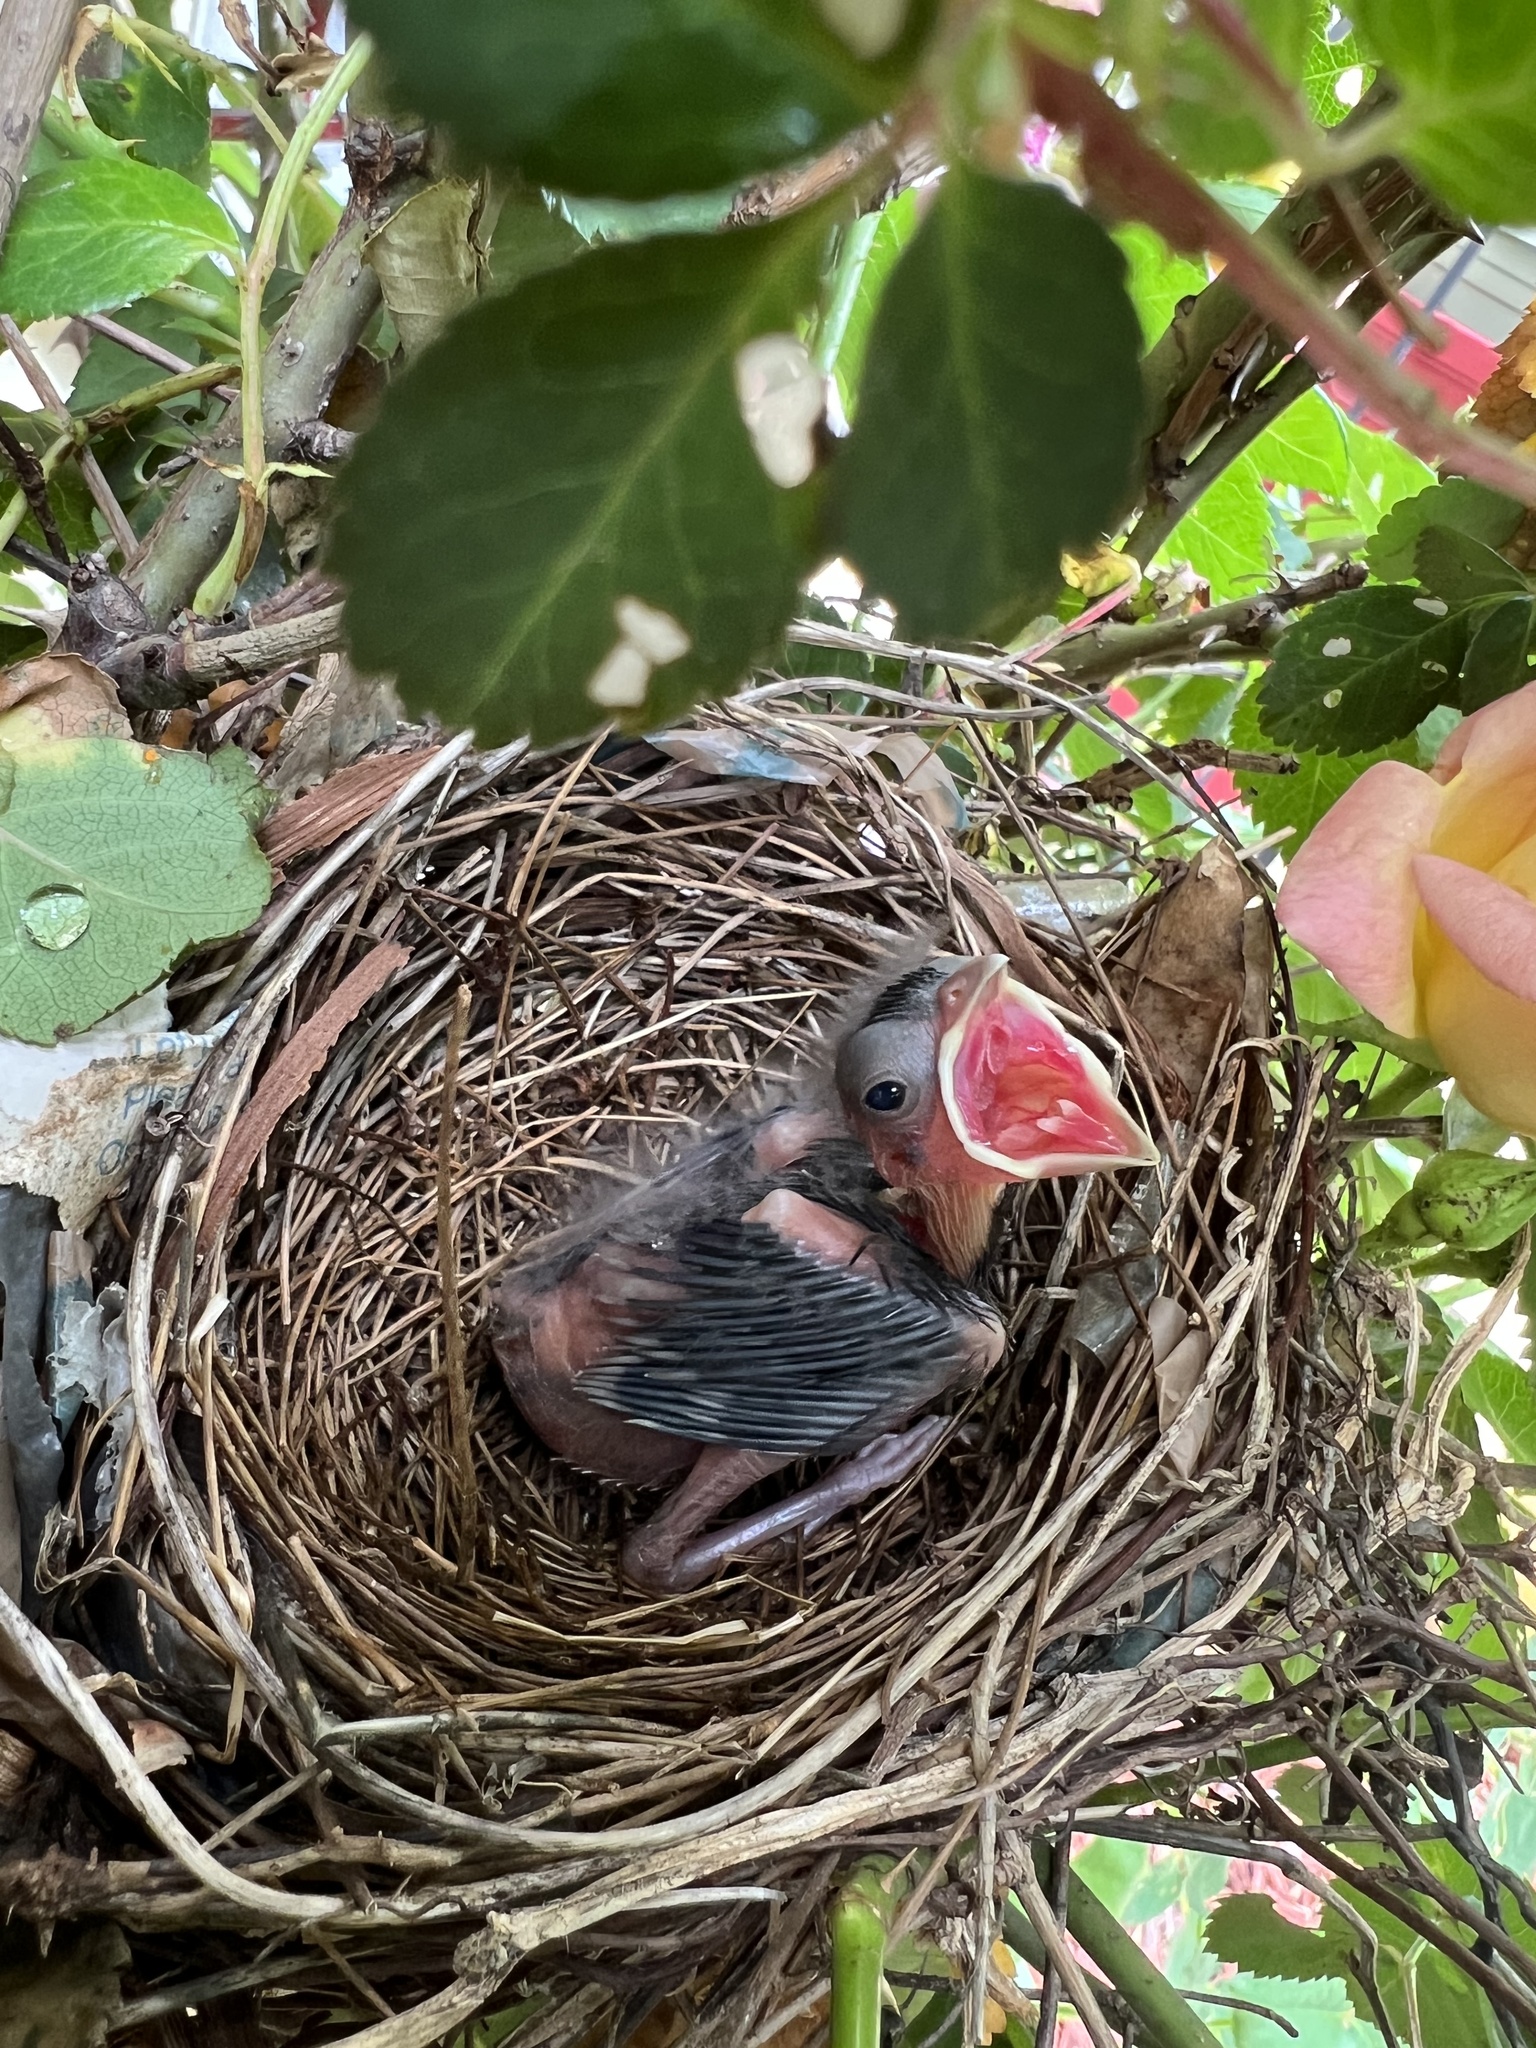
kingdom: Animalia
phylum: Chordata
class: Aves
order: Passeriformes
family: Cardinalidae
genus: Cardinalis
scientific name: Cardinalis cardinalis
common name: Northern cardinal
